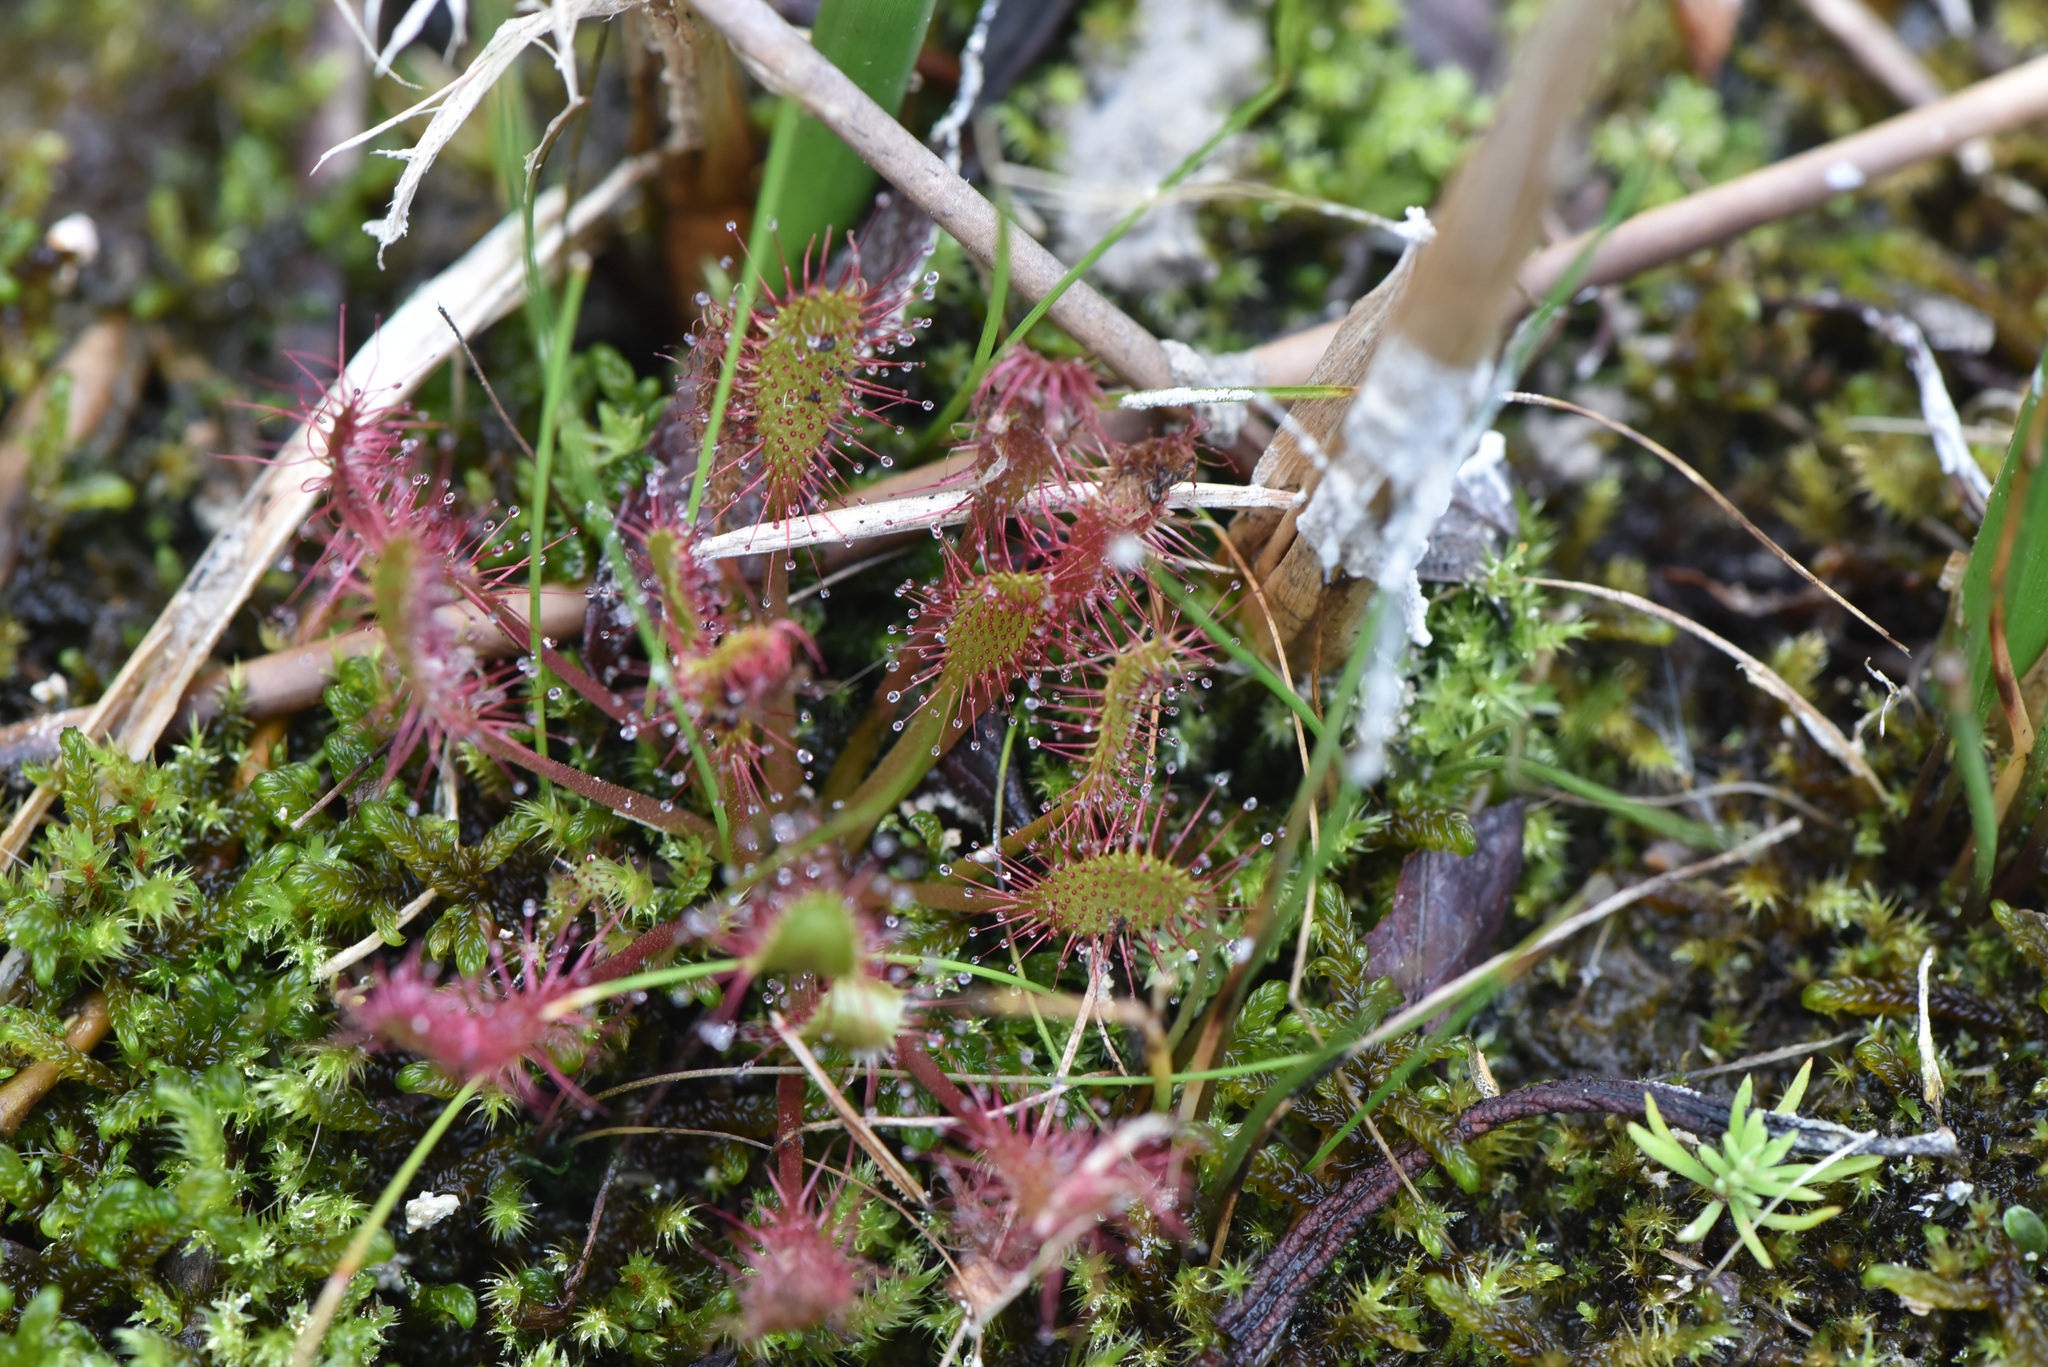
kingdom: Plantae
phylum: Tracheophyta
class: Magnoliopsida
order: Caryophyllales
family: Droseraceae
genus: Drosera
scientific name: Drosera obovata
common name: Ivan's paddle
